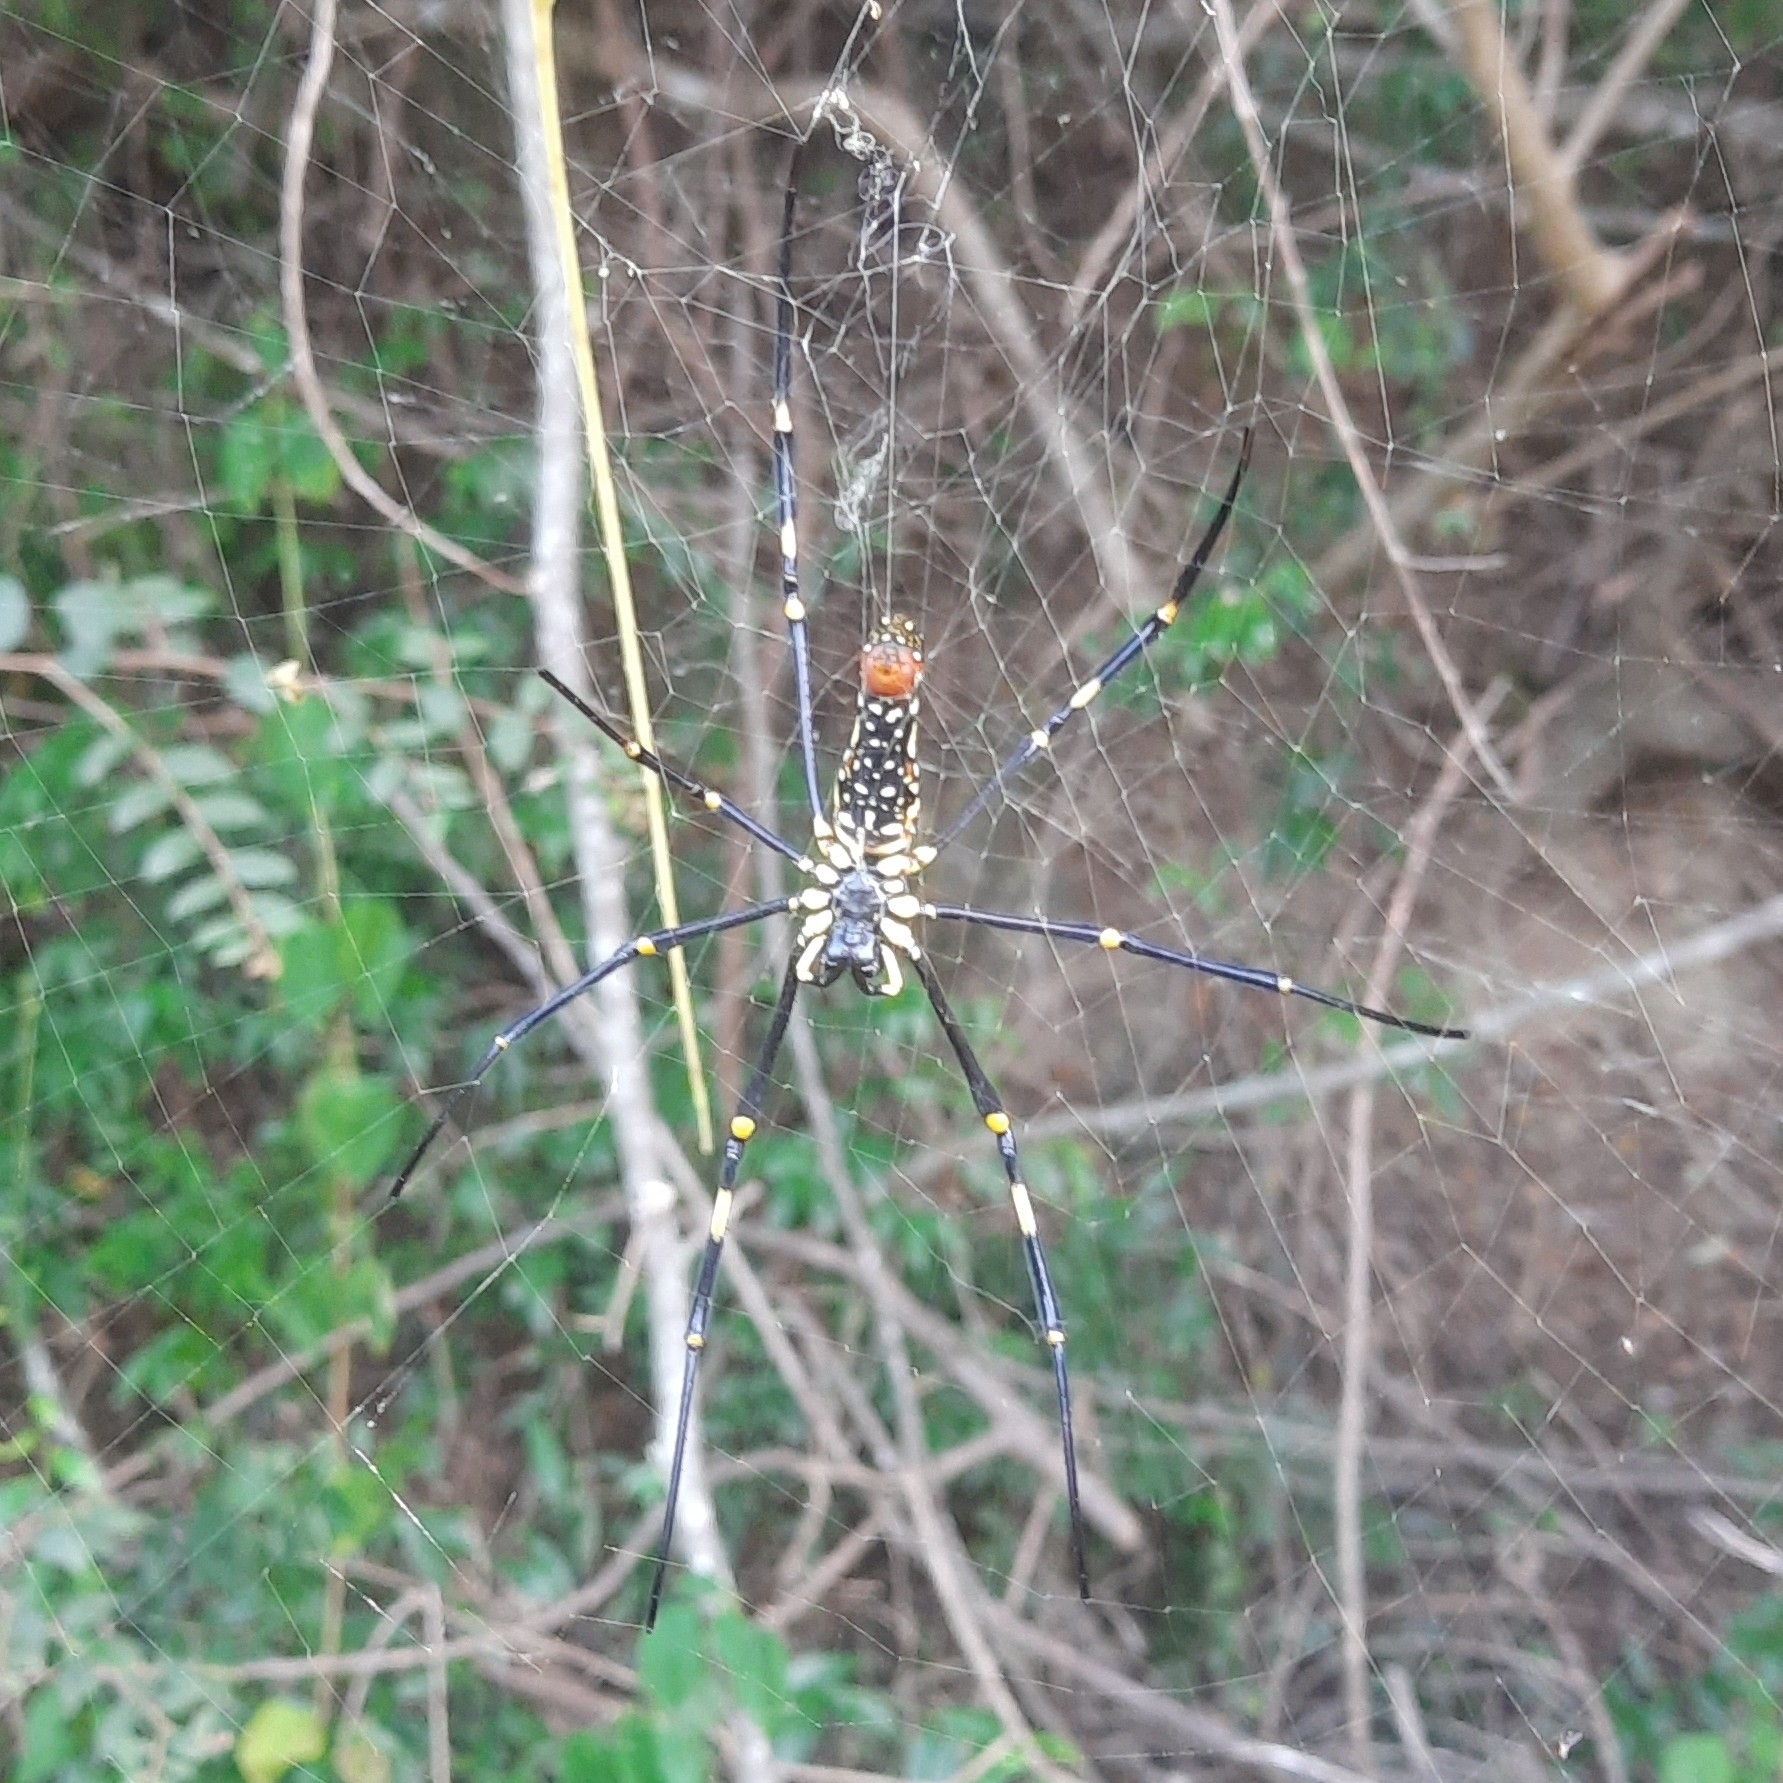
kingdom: Animalia
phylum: Arthropoda
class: Arachnida
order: Araneae
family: Araneidae
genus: Nephila
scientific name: Nephila pilipes
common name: Giant golden orb weaver
